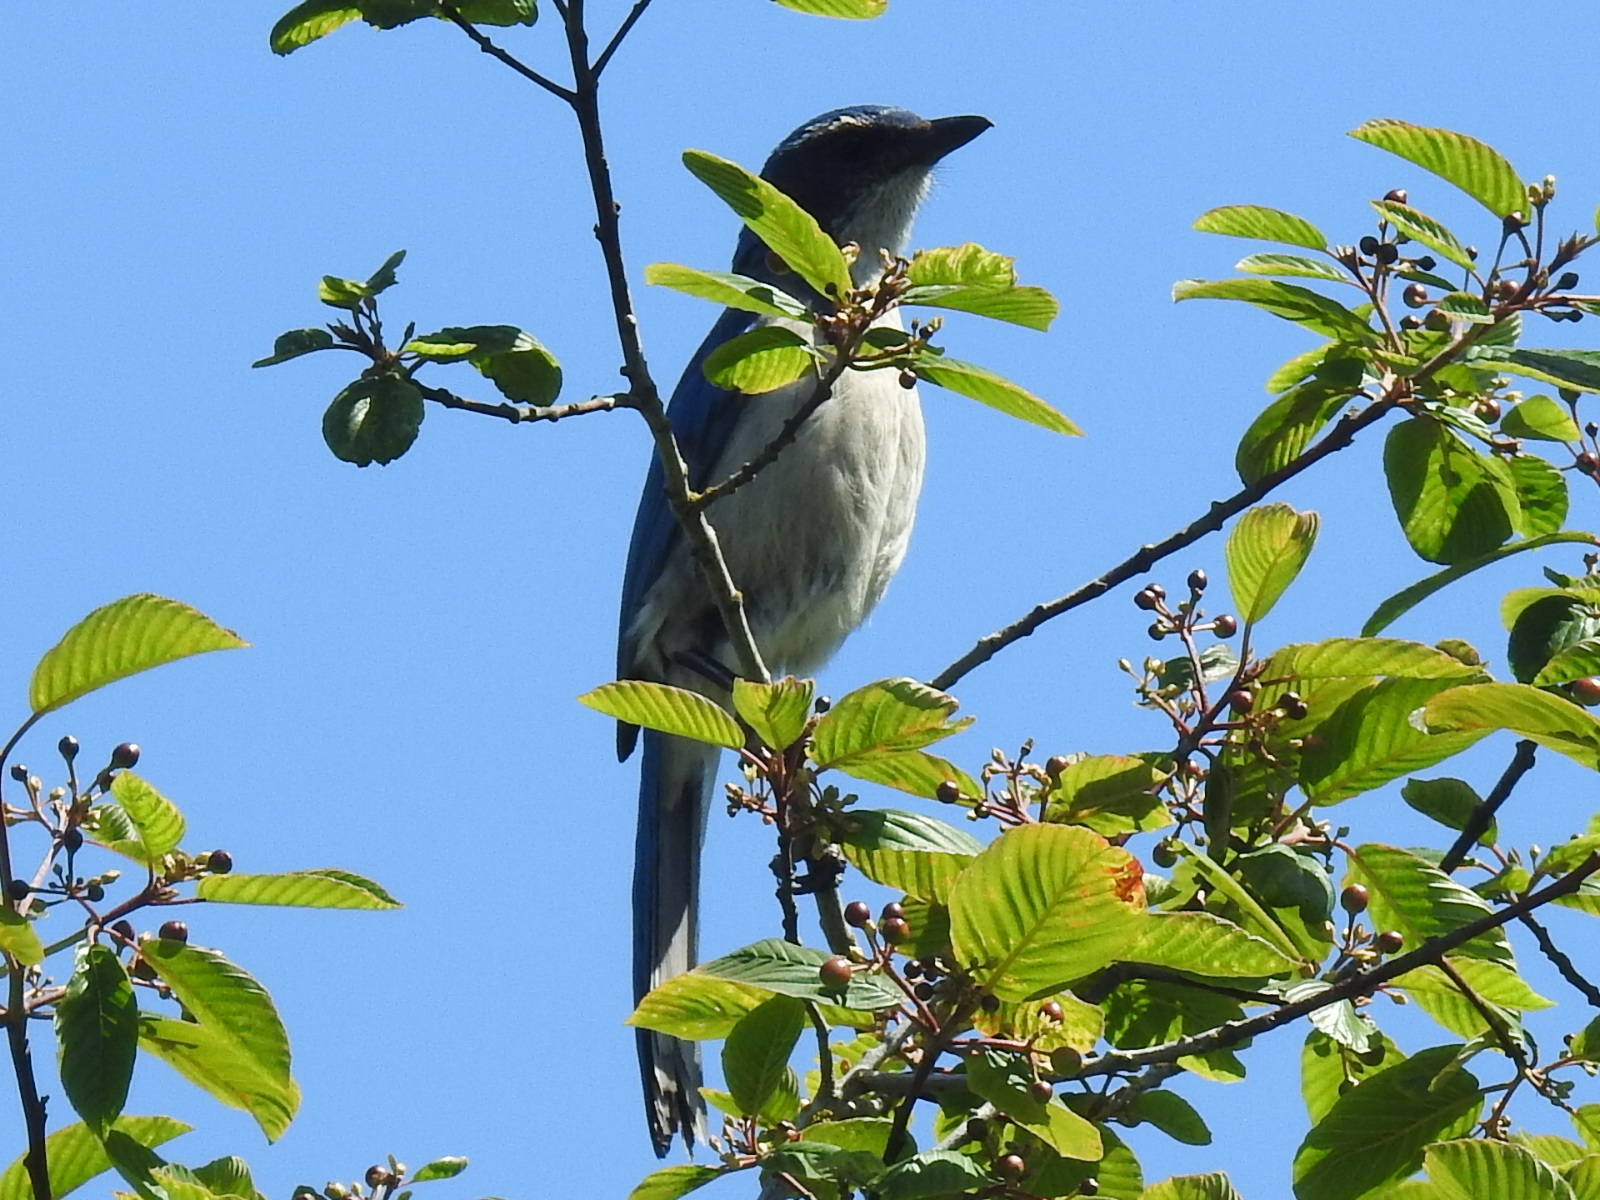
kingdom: Animalia
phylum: Chordata
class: Aves
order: Passeriformes
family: Corvidae
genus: Aphelocoma
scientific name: Aphelocoma californica
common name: California scrub-jay
